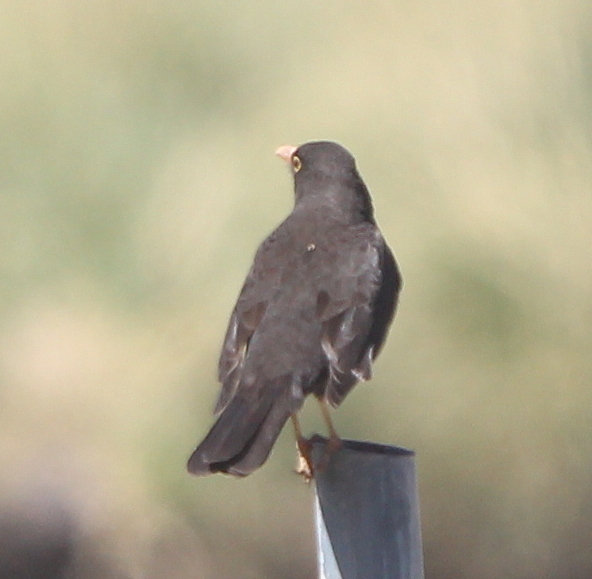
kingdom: Animalia
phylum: Chordata
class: Aves
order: Passeriformes
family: Turdidae
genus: Turdus
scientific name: Turdus chiguanco
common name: Chiguanco thrush
